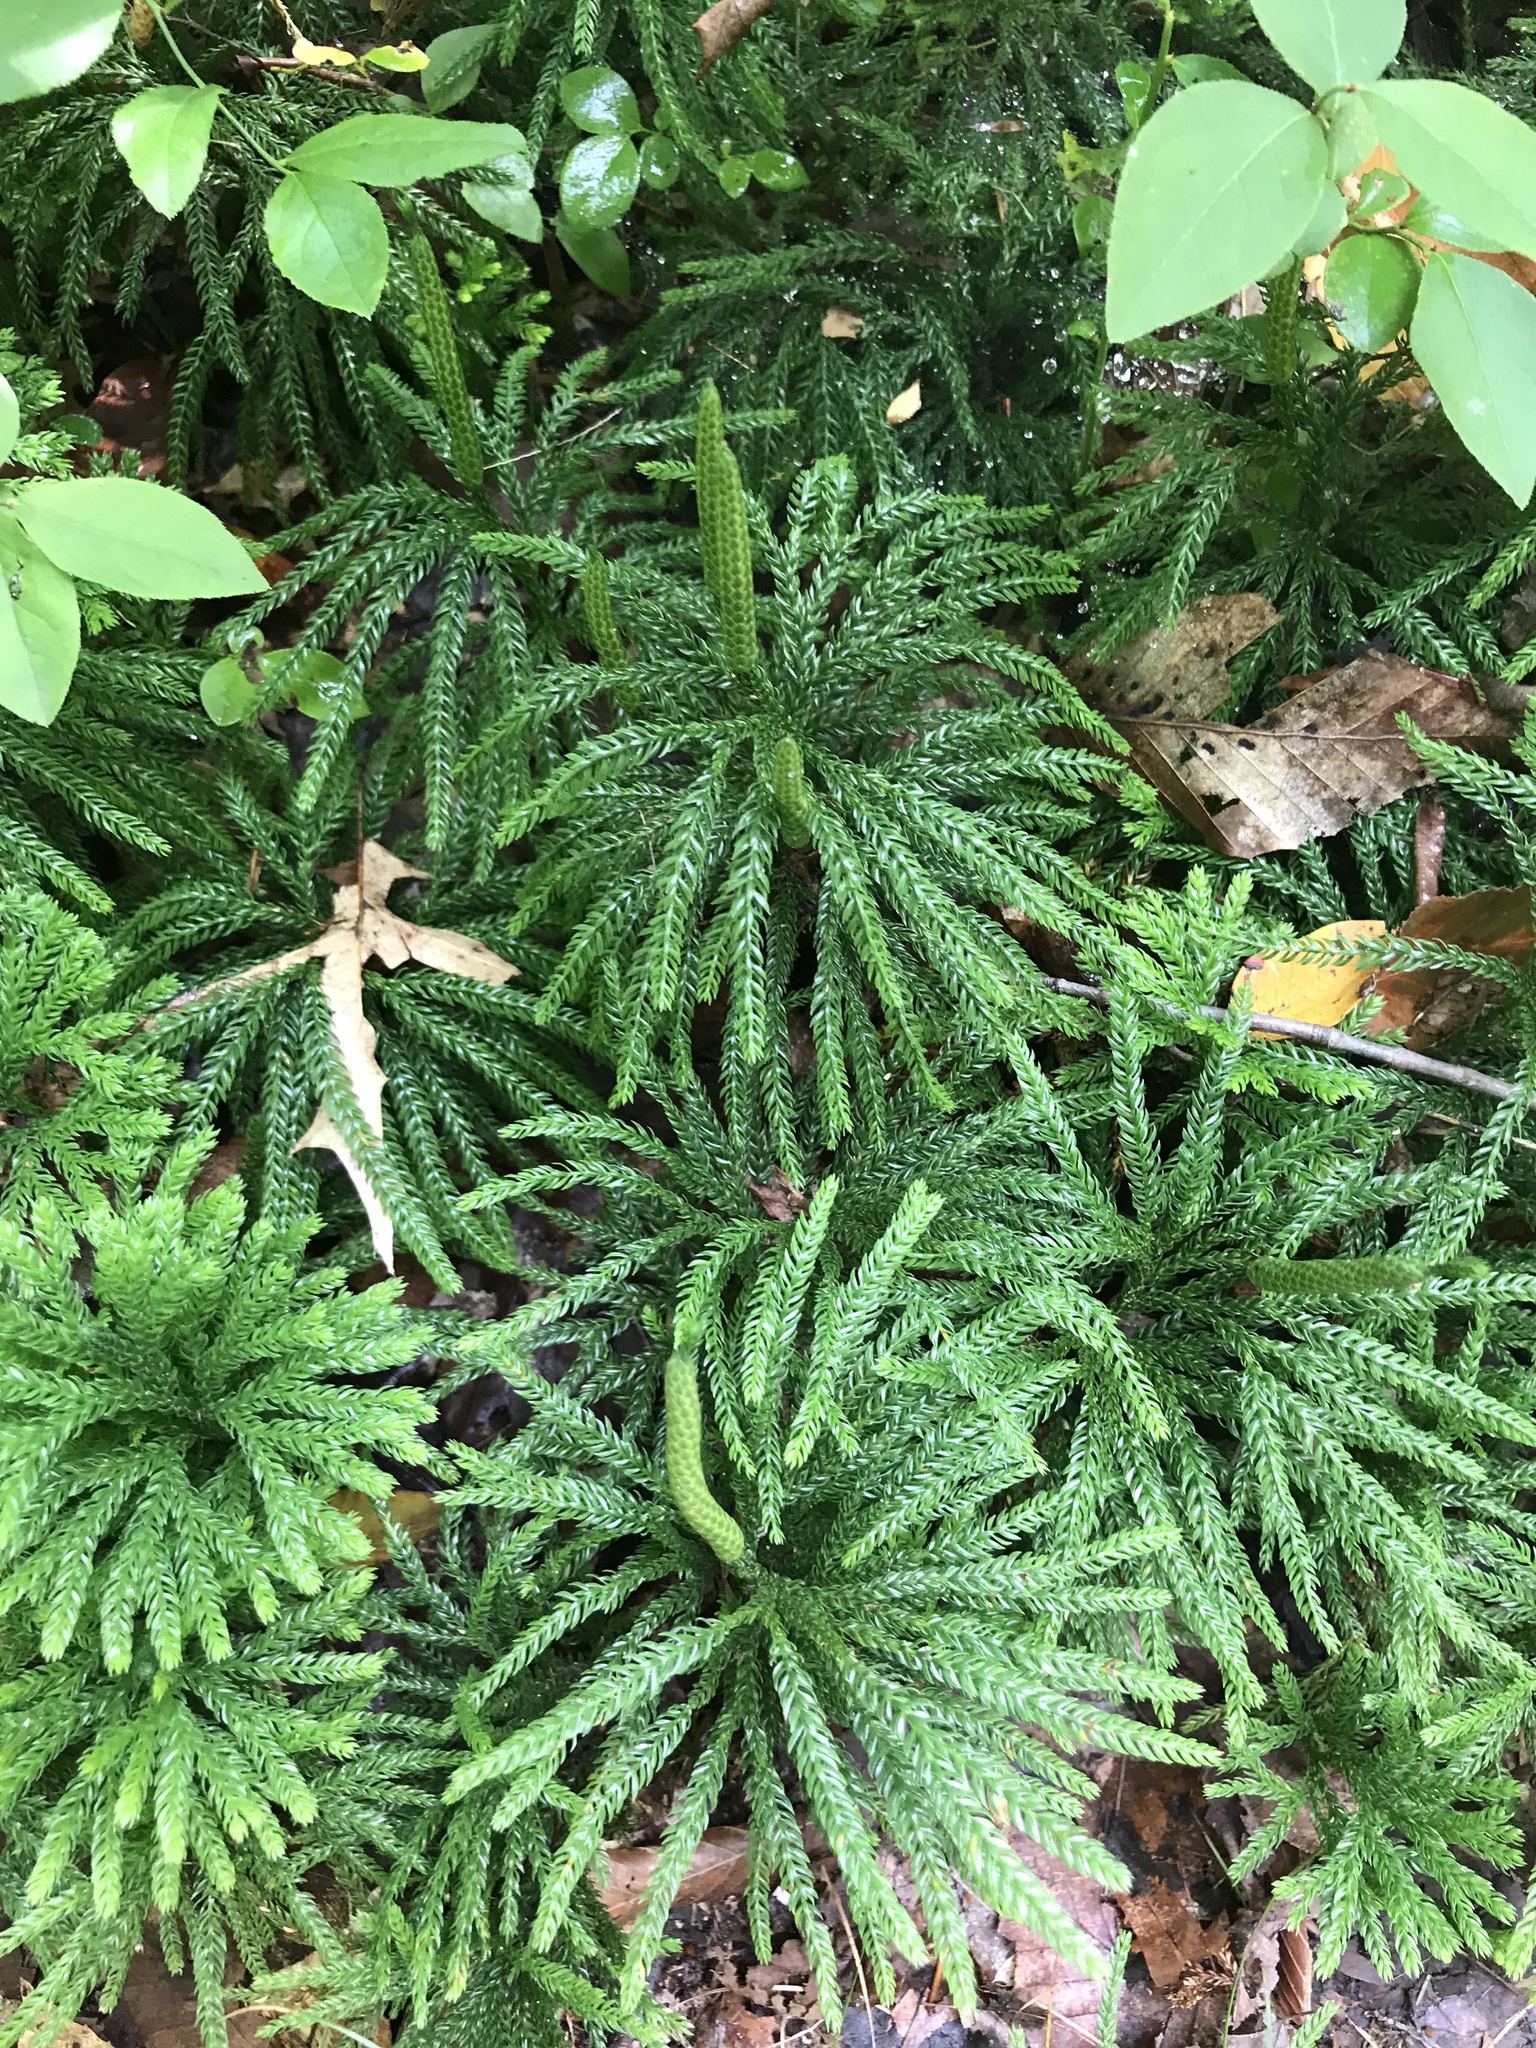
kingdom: Plantae
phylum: Tracheophyta
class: Lycopodiopsida
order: Lycopodiales
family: Lycopodiaceae
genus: Dendrolycopodium
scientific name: Dendrolycopodium obscurum
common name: Common ground-pine
